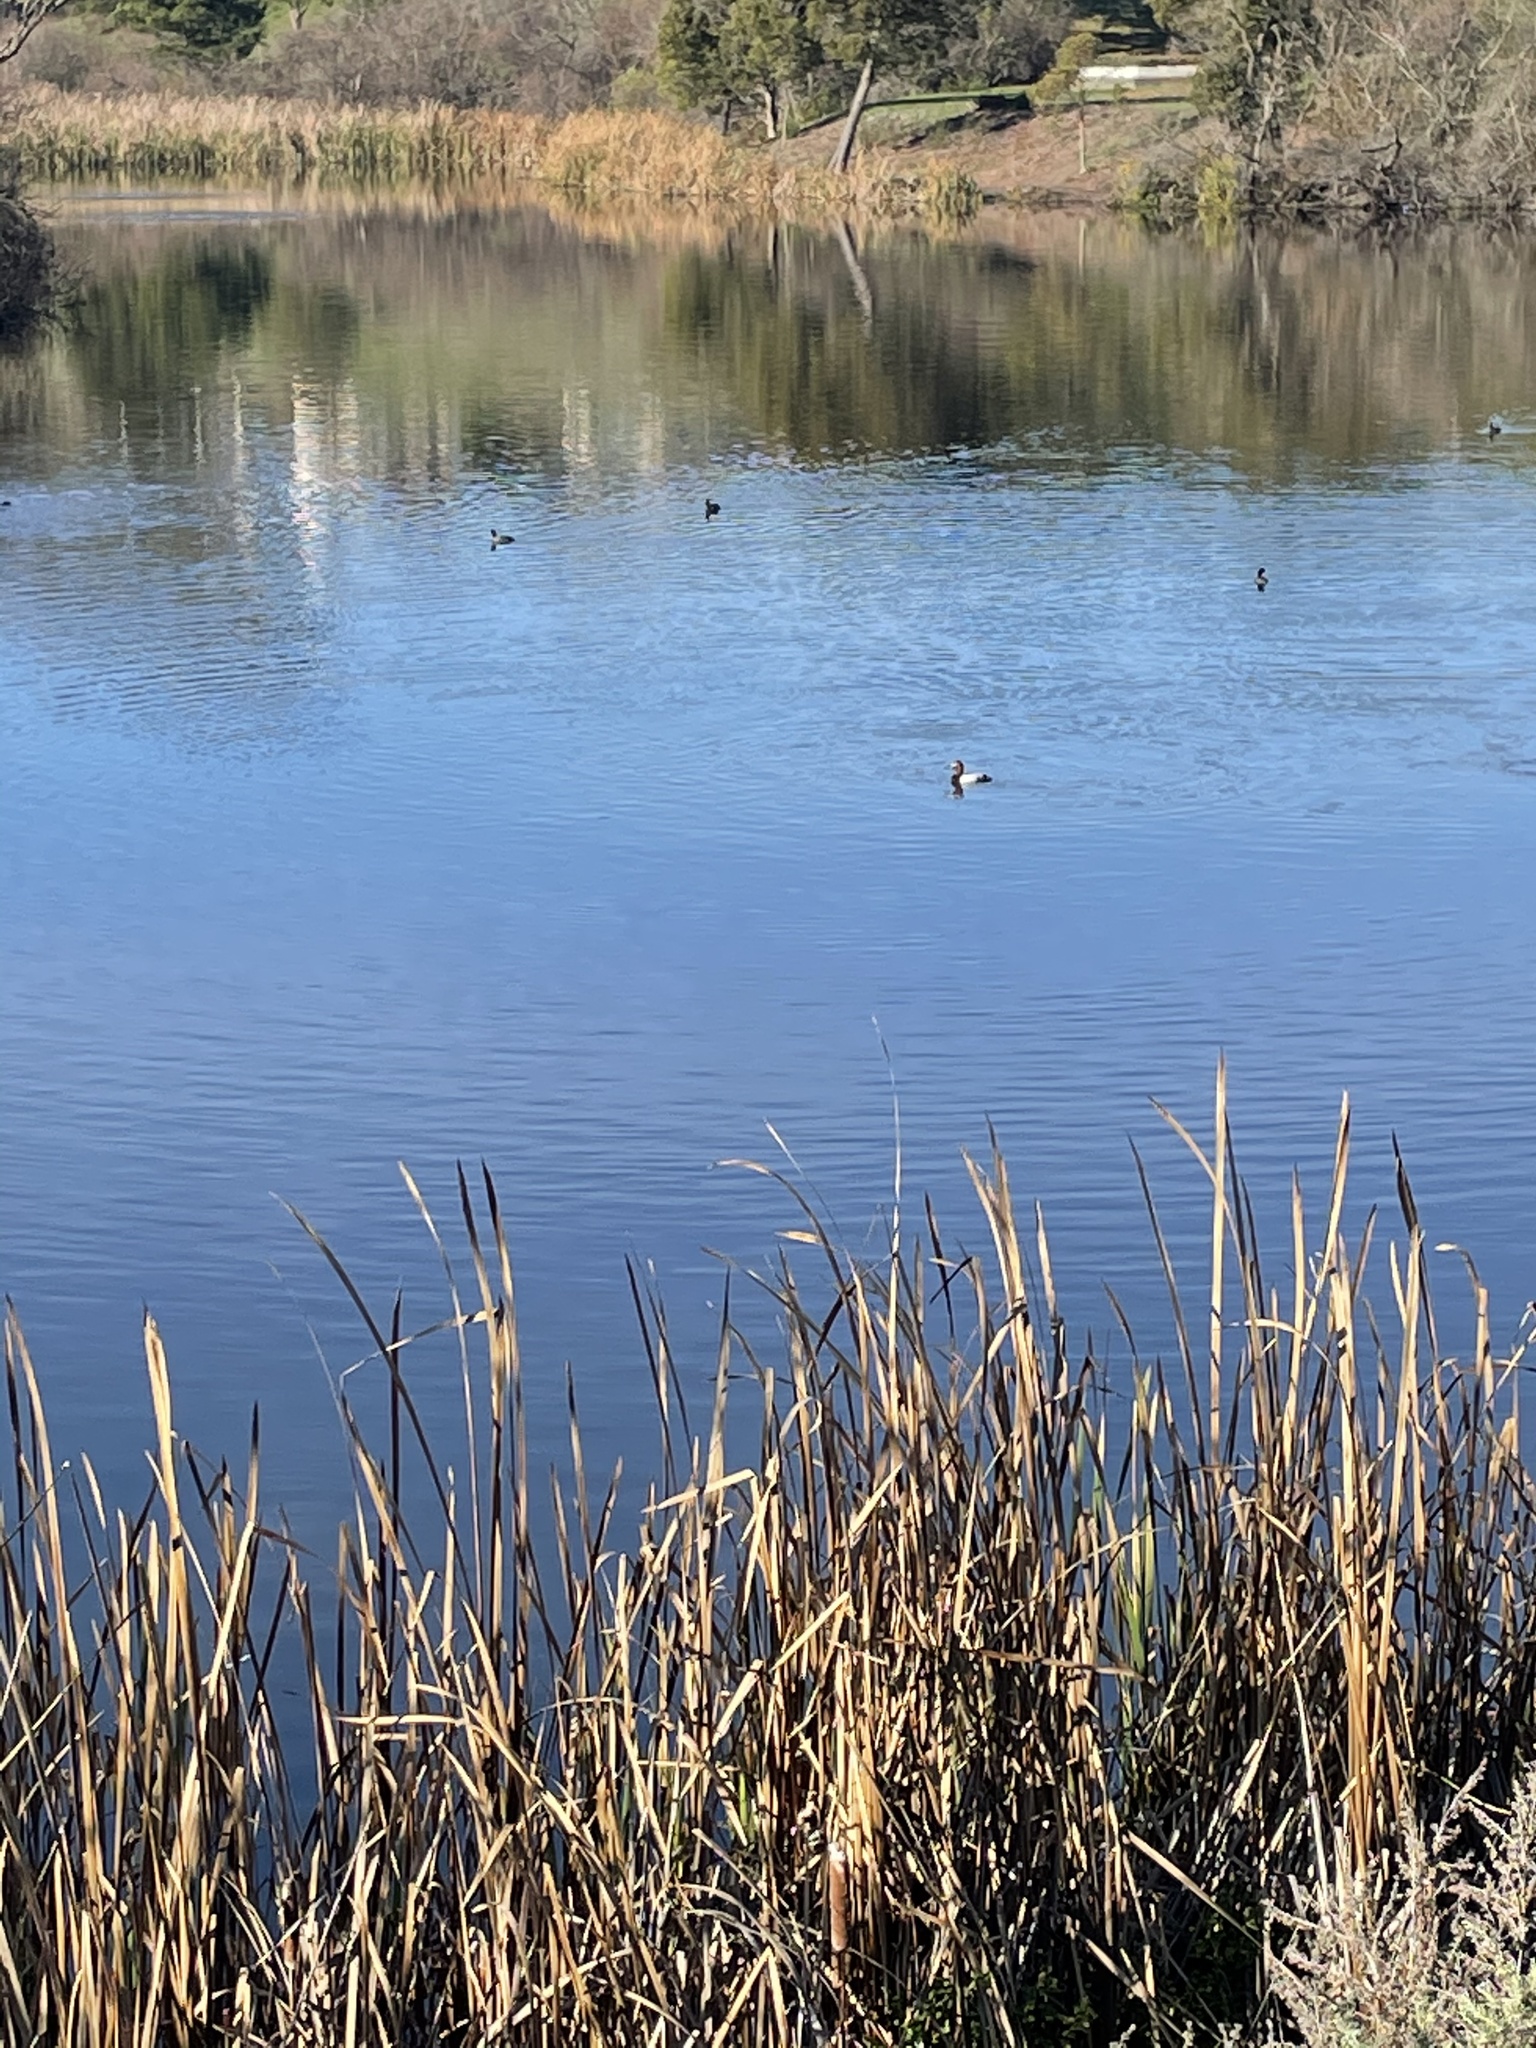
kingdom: Animalia
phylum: Chordata
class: Aves
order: Anseriformes
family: Anatidae
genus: Aythya
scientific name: Aythya valisineria
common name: Canvasback
